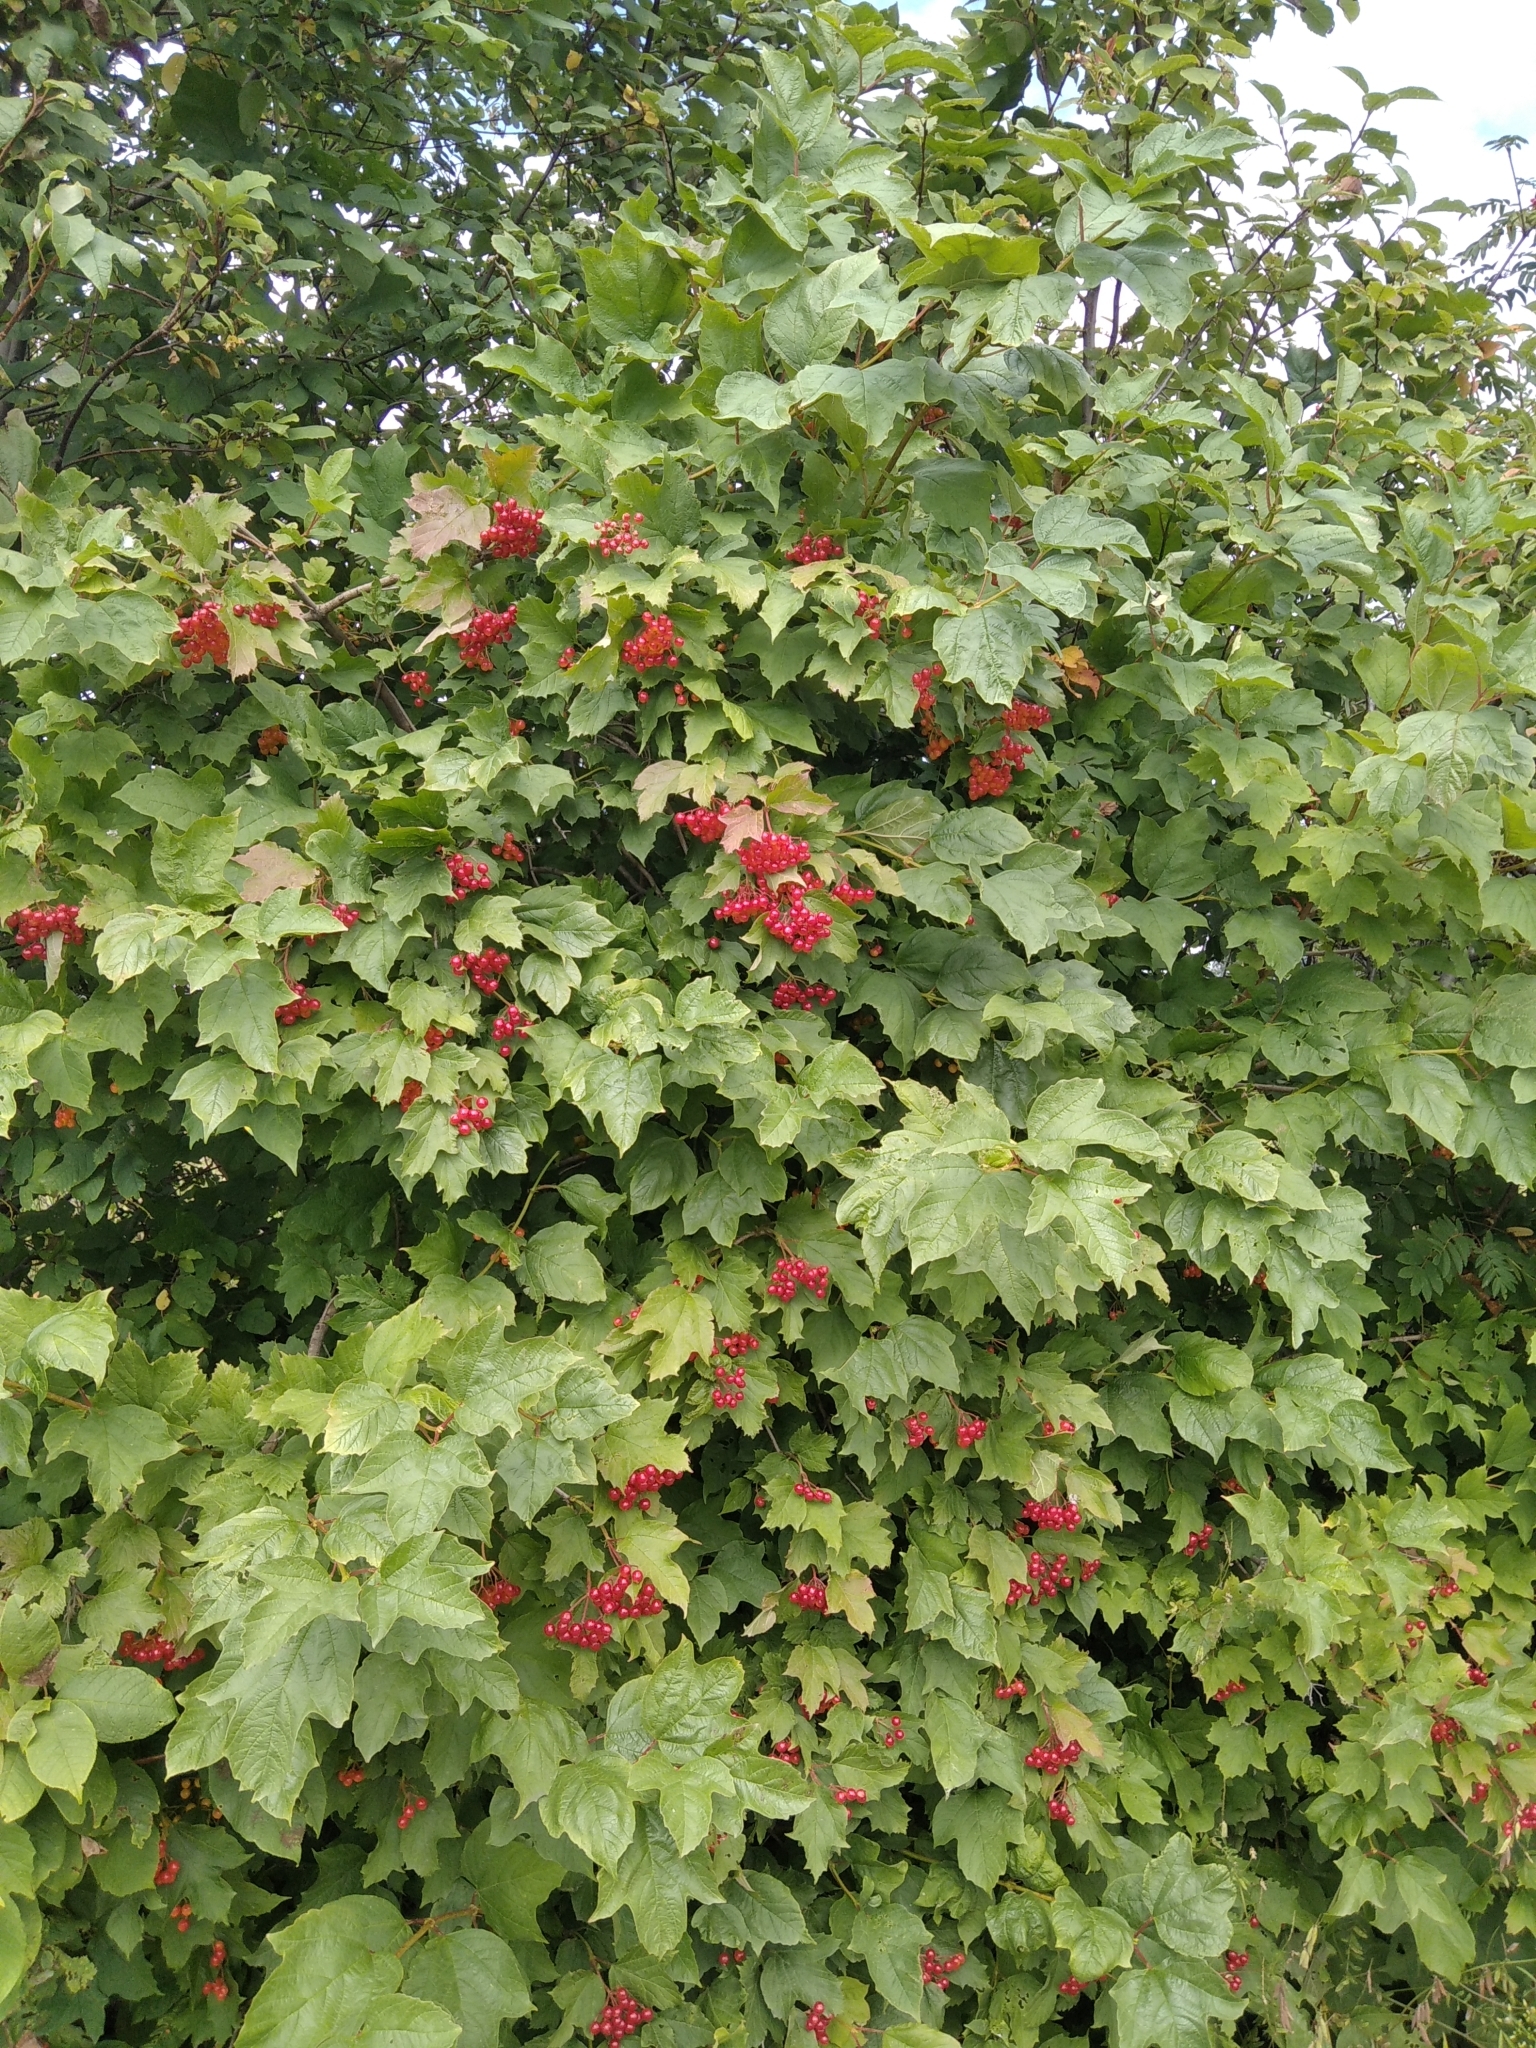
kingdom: Plantae
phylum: Tracheophyta
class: Magnoliopsida
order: Dipsacales
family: Viburnaceae
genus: Viburnum
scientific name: Viburnum opulus
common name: Guelder-rose
